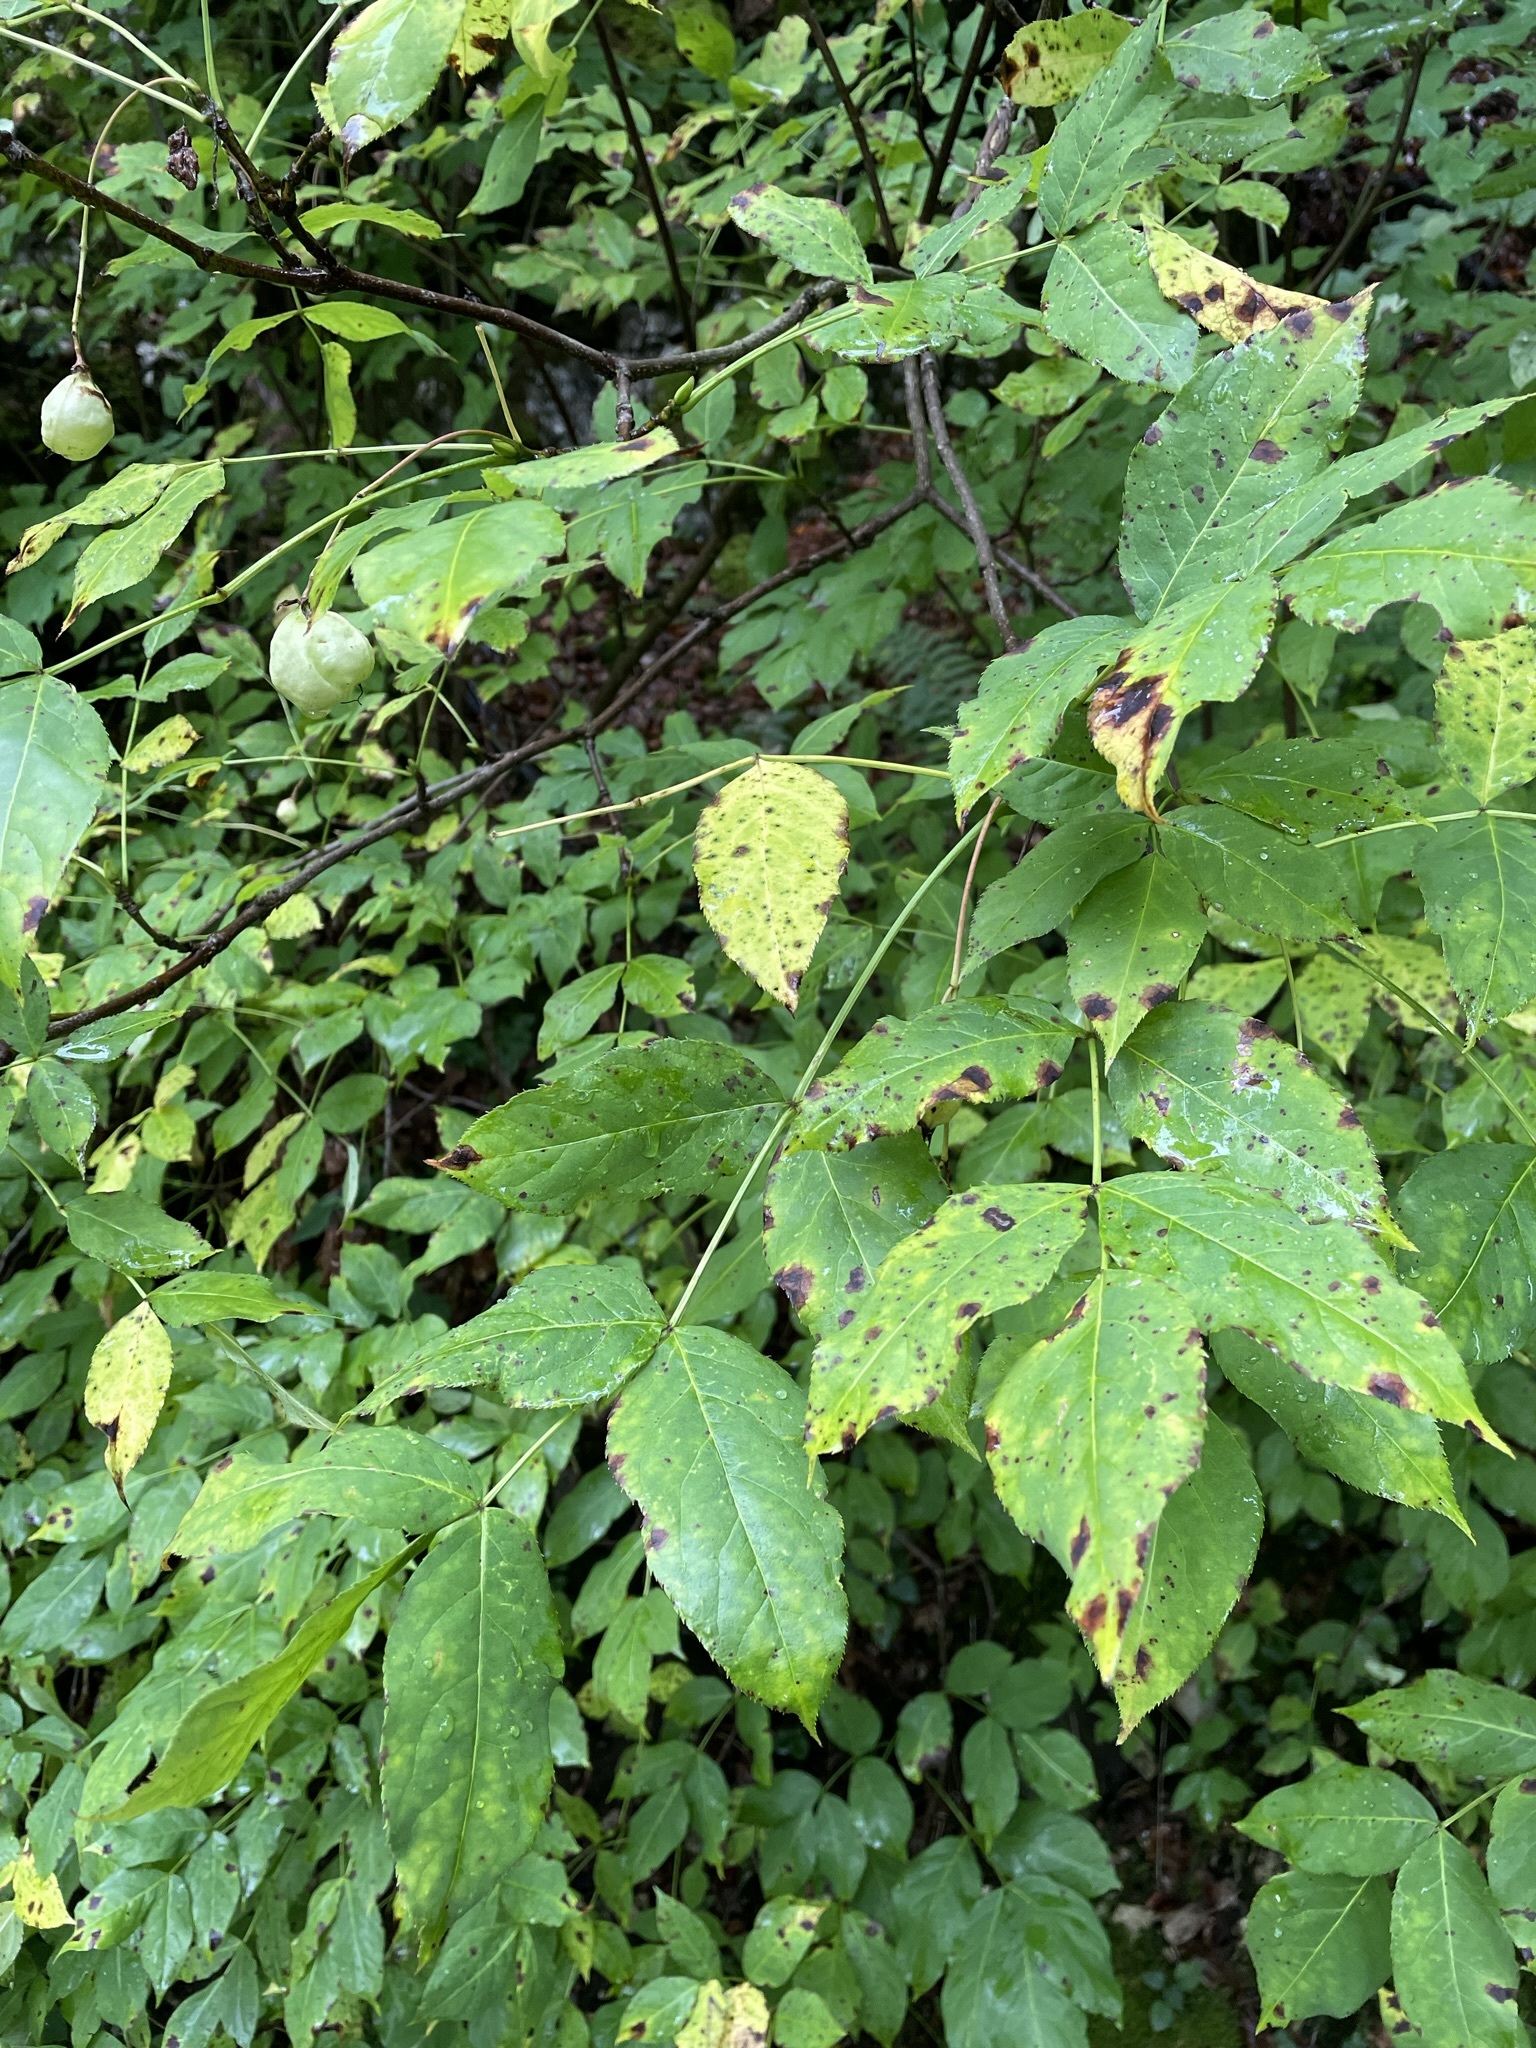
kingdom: Plantae
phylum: Tracheophyta
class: Magnoliopsida
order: Crossosomatales
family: Staphyleaceae
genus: Staphylea
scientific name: Staphylea pinnata
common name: Bladdernut
